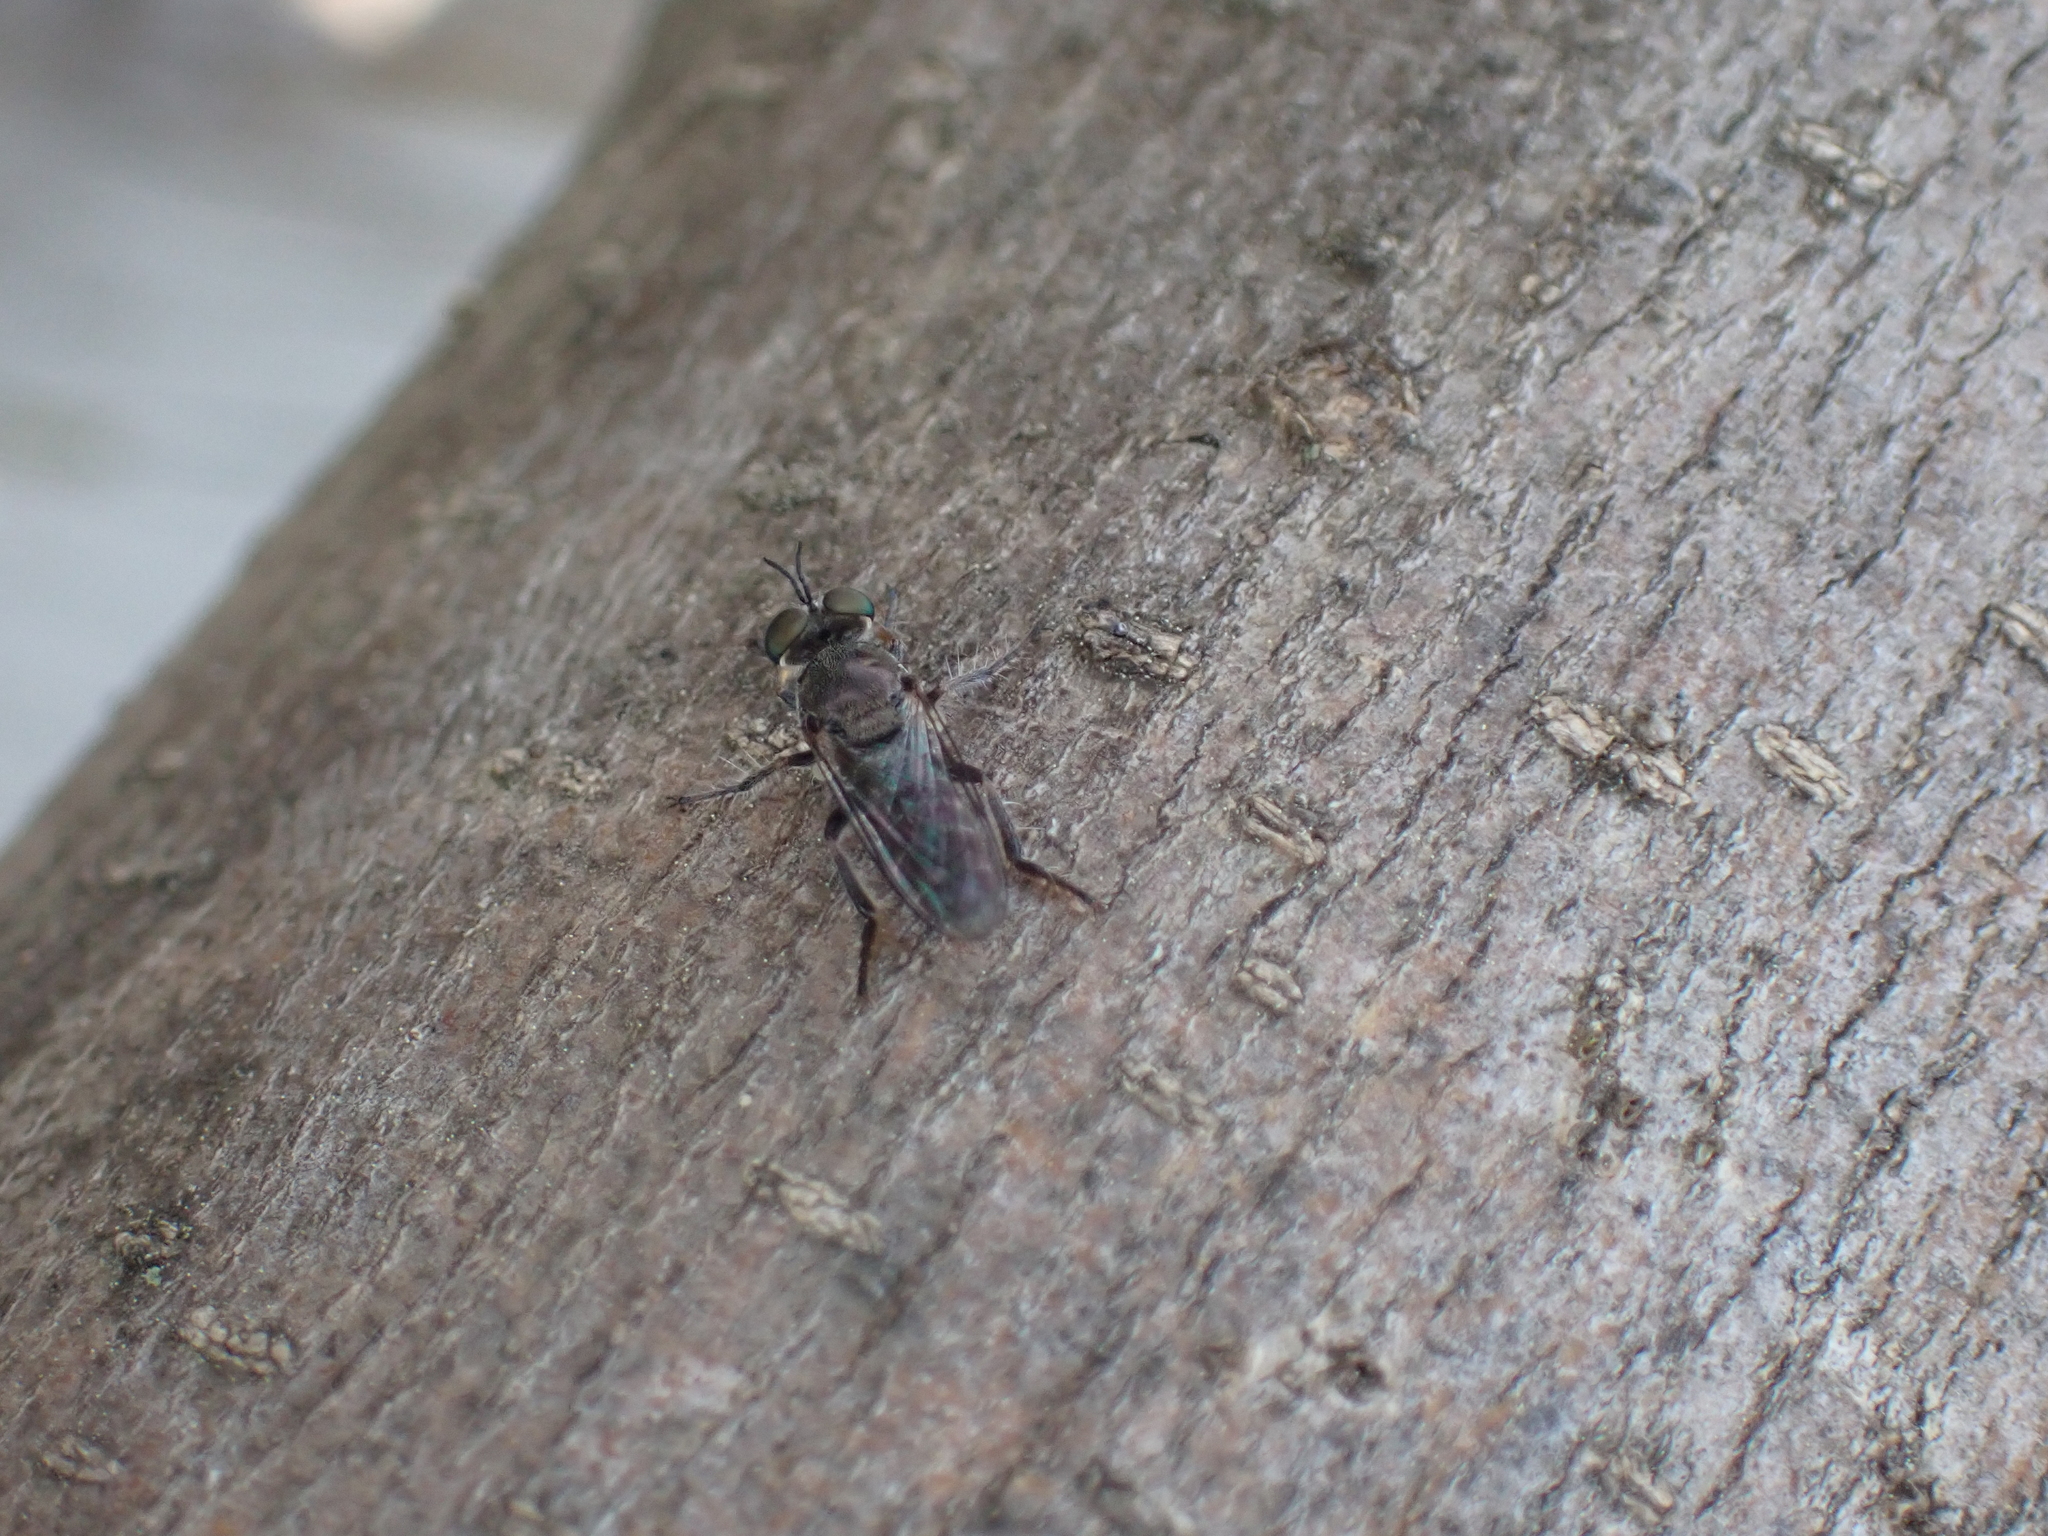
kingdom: Animalia
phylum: Arthropoda
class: Insecta
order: Diptera
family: Asilidae
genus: Atomosia
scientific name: Atomosia puella
